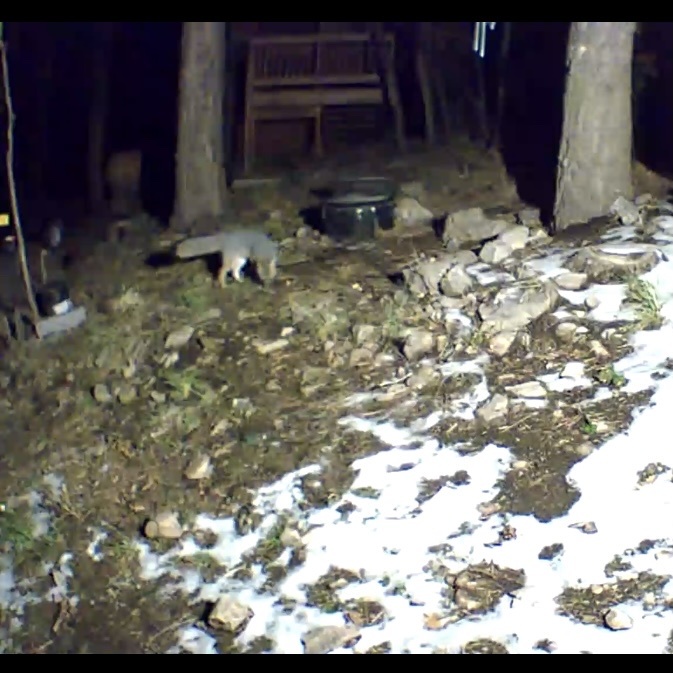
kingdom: Animalia
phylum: Chordata
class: Mammalia
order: Carnivora
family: Canidae
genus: Urocyon
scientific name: Urocyon cinereoargenteus
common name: Gray fox
